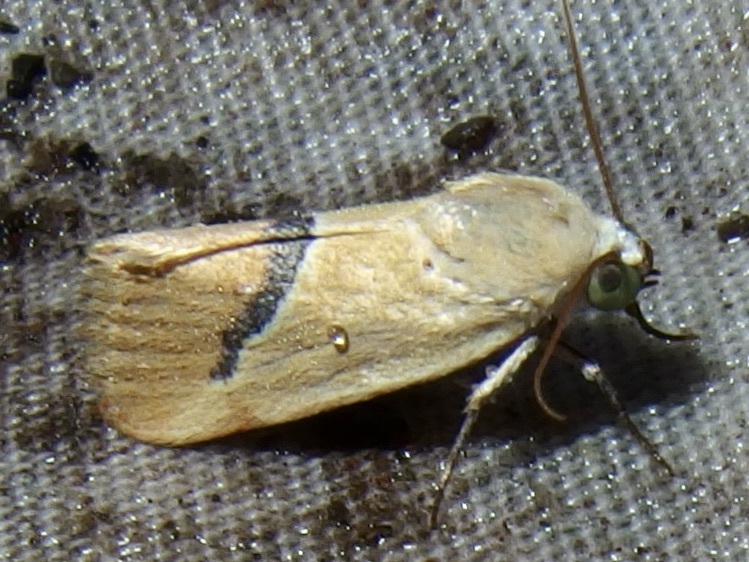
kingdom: Animalia
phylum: Arthropoda
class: Insecta
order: Lepidoptera
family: Noctuidae
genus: Ponometia
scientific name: Ponometia venustula
